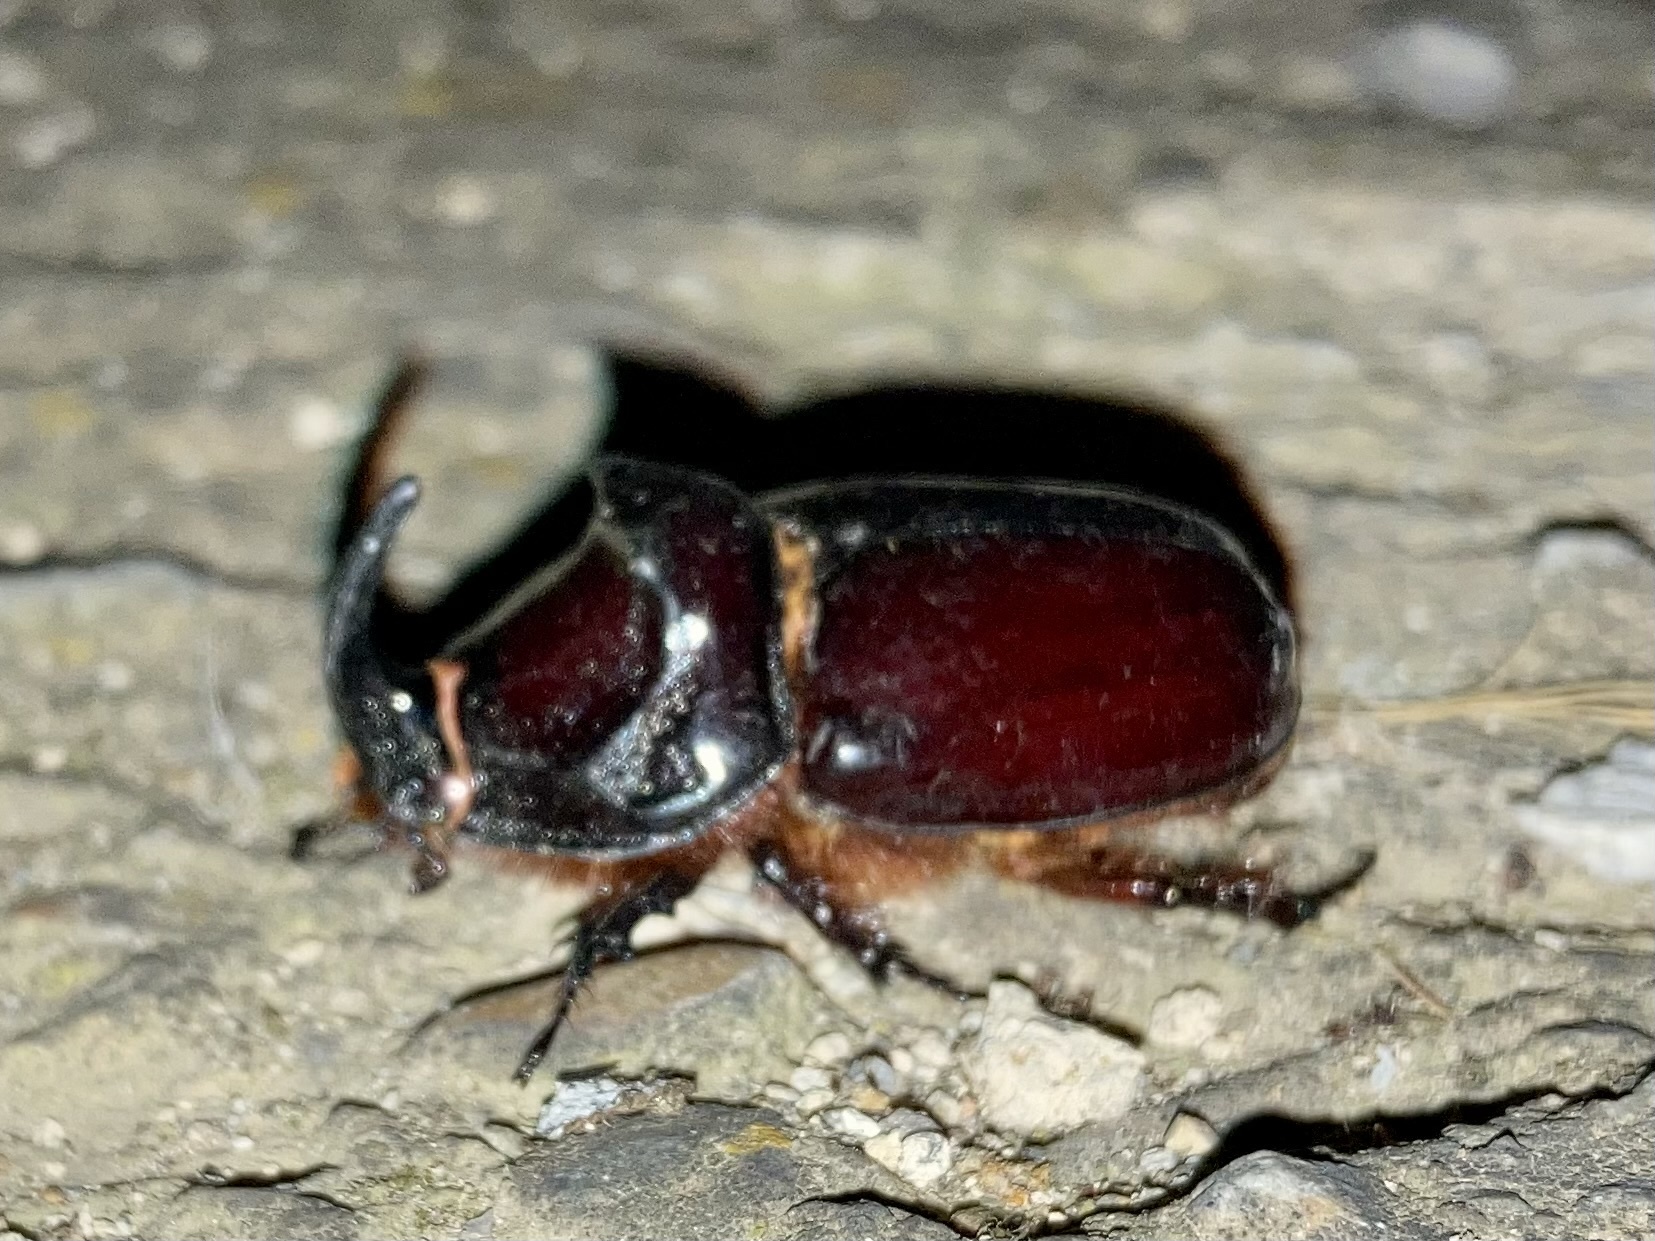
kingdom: Animalia
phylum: Arthropoda
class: Insecta
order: Coleoptera
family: Scarabaeidae
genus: Oryctes
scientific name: Oryctes nasicornis
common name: European rhinoceros beetle
